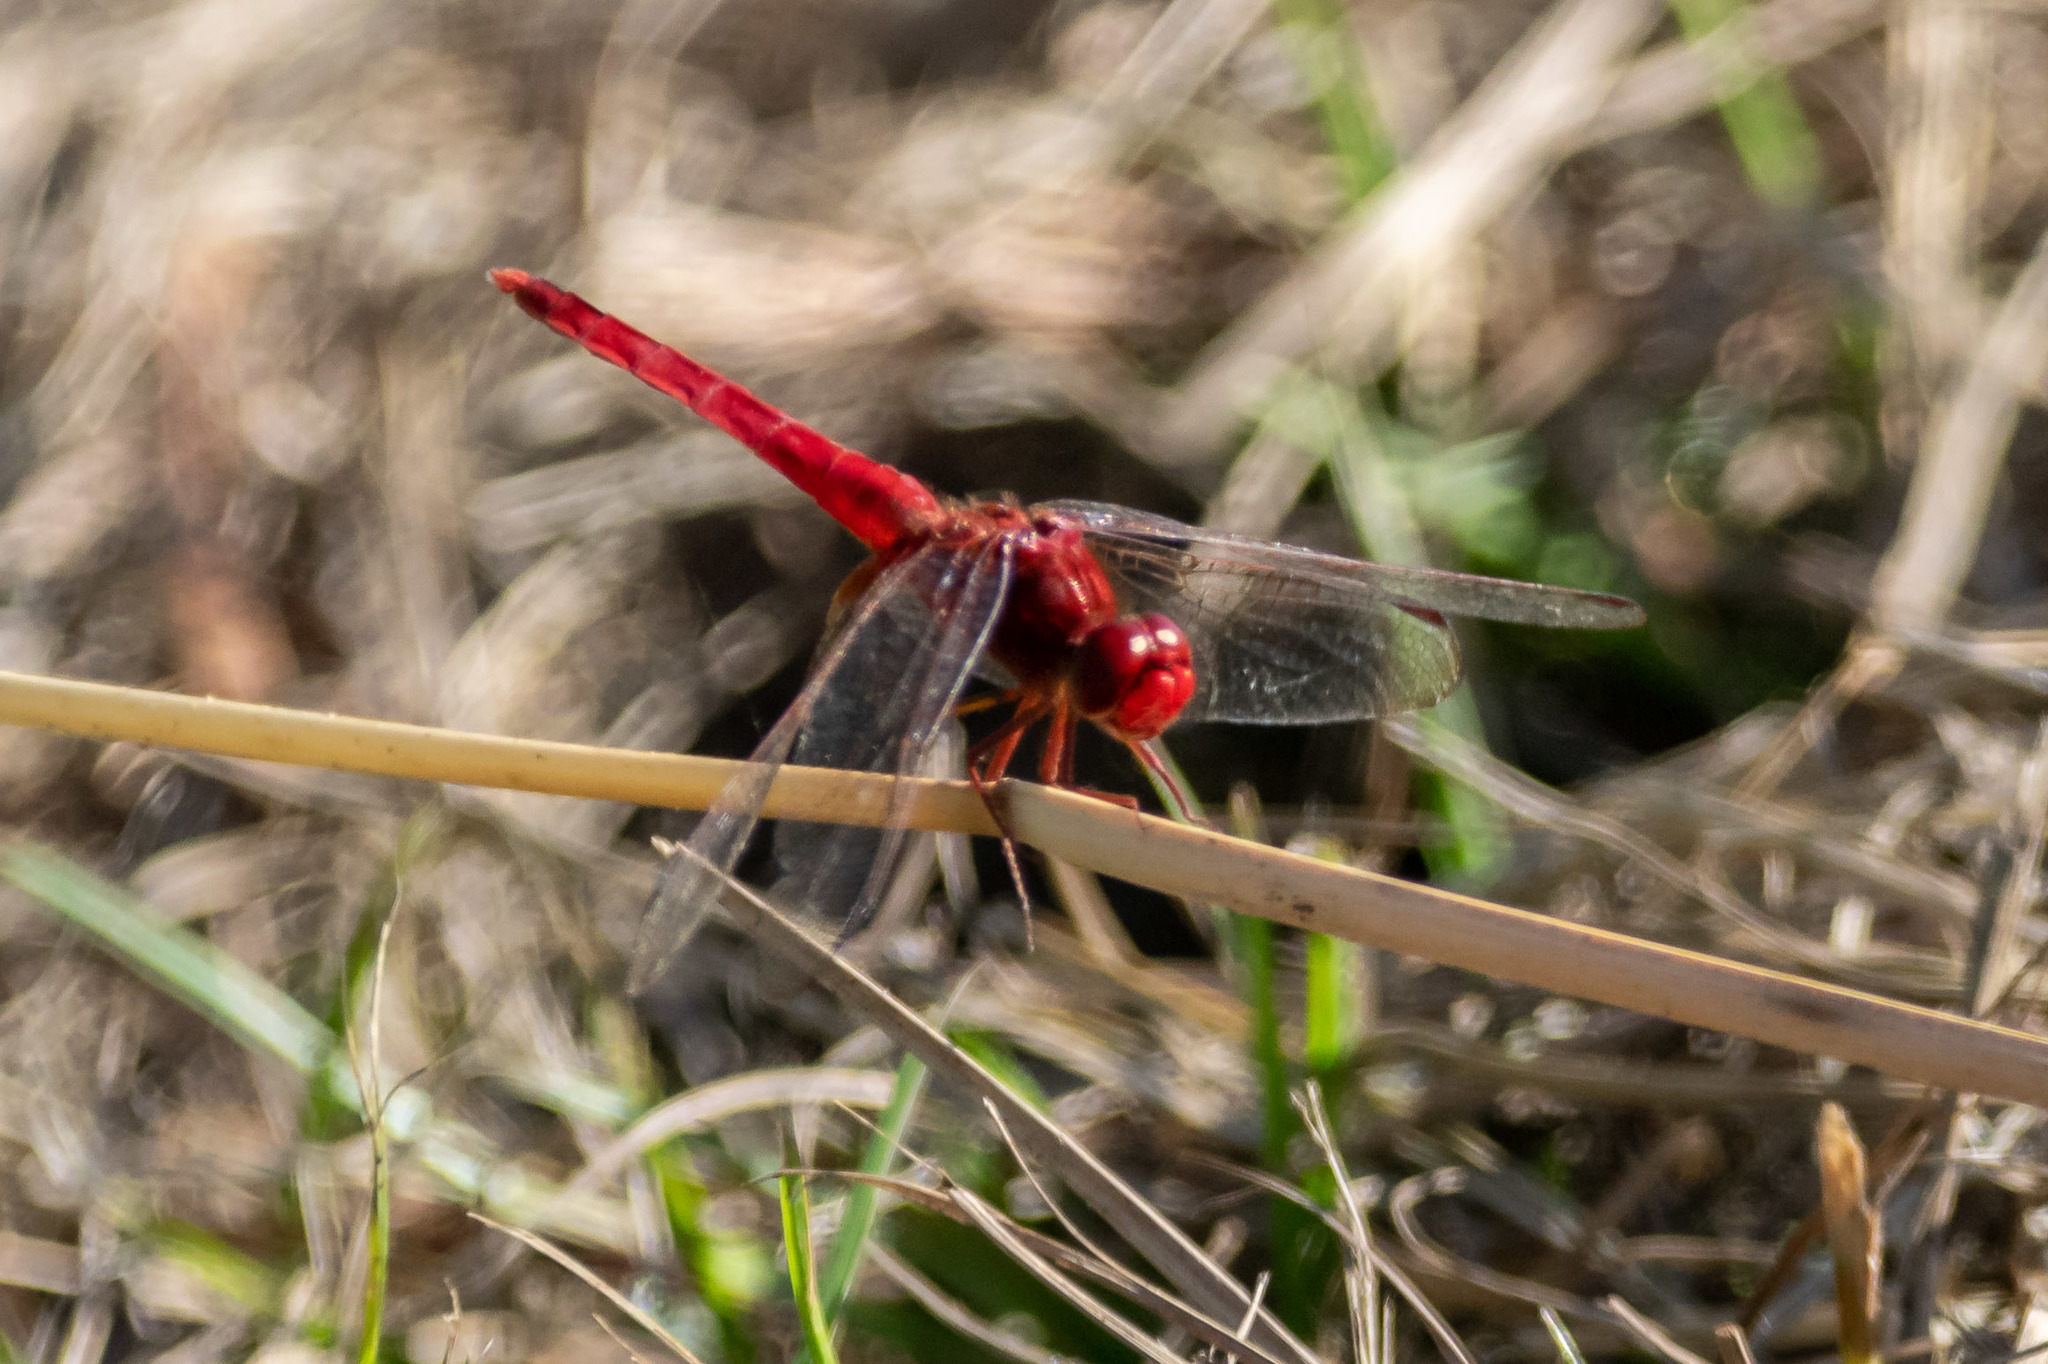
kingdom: Animalia
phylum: Arthropoda
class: Insecta
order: Odonata
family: Libellulidae
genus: Crocothemis
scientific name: Crocothemis servilia
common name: Scarlet skimmer
